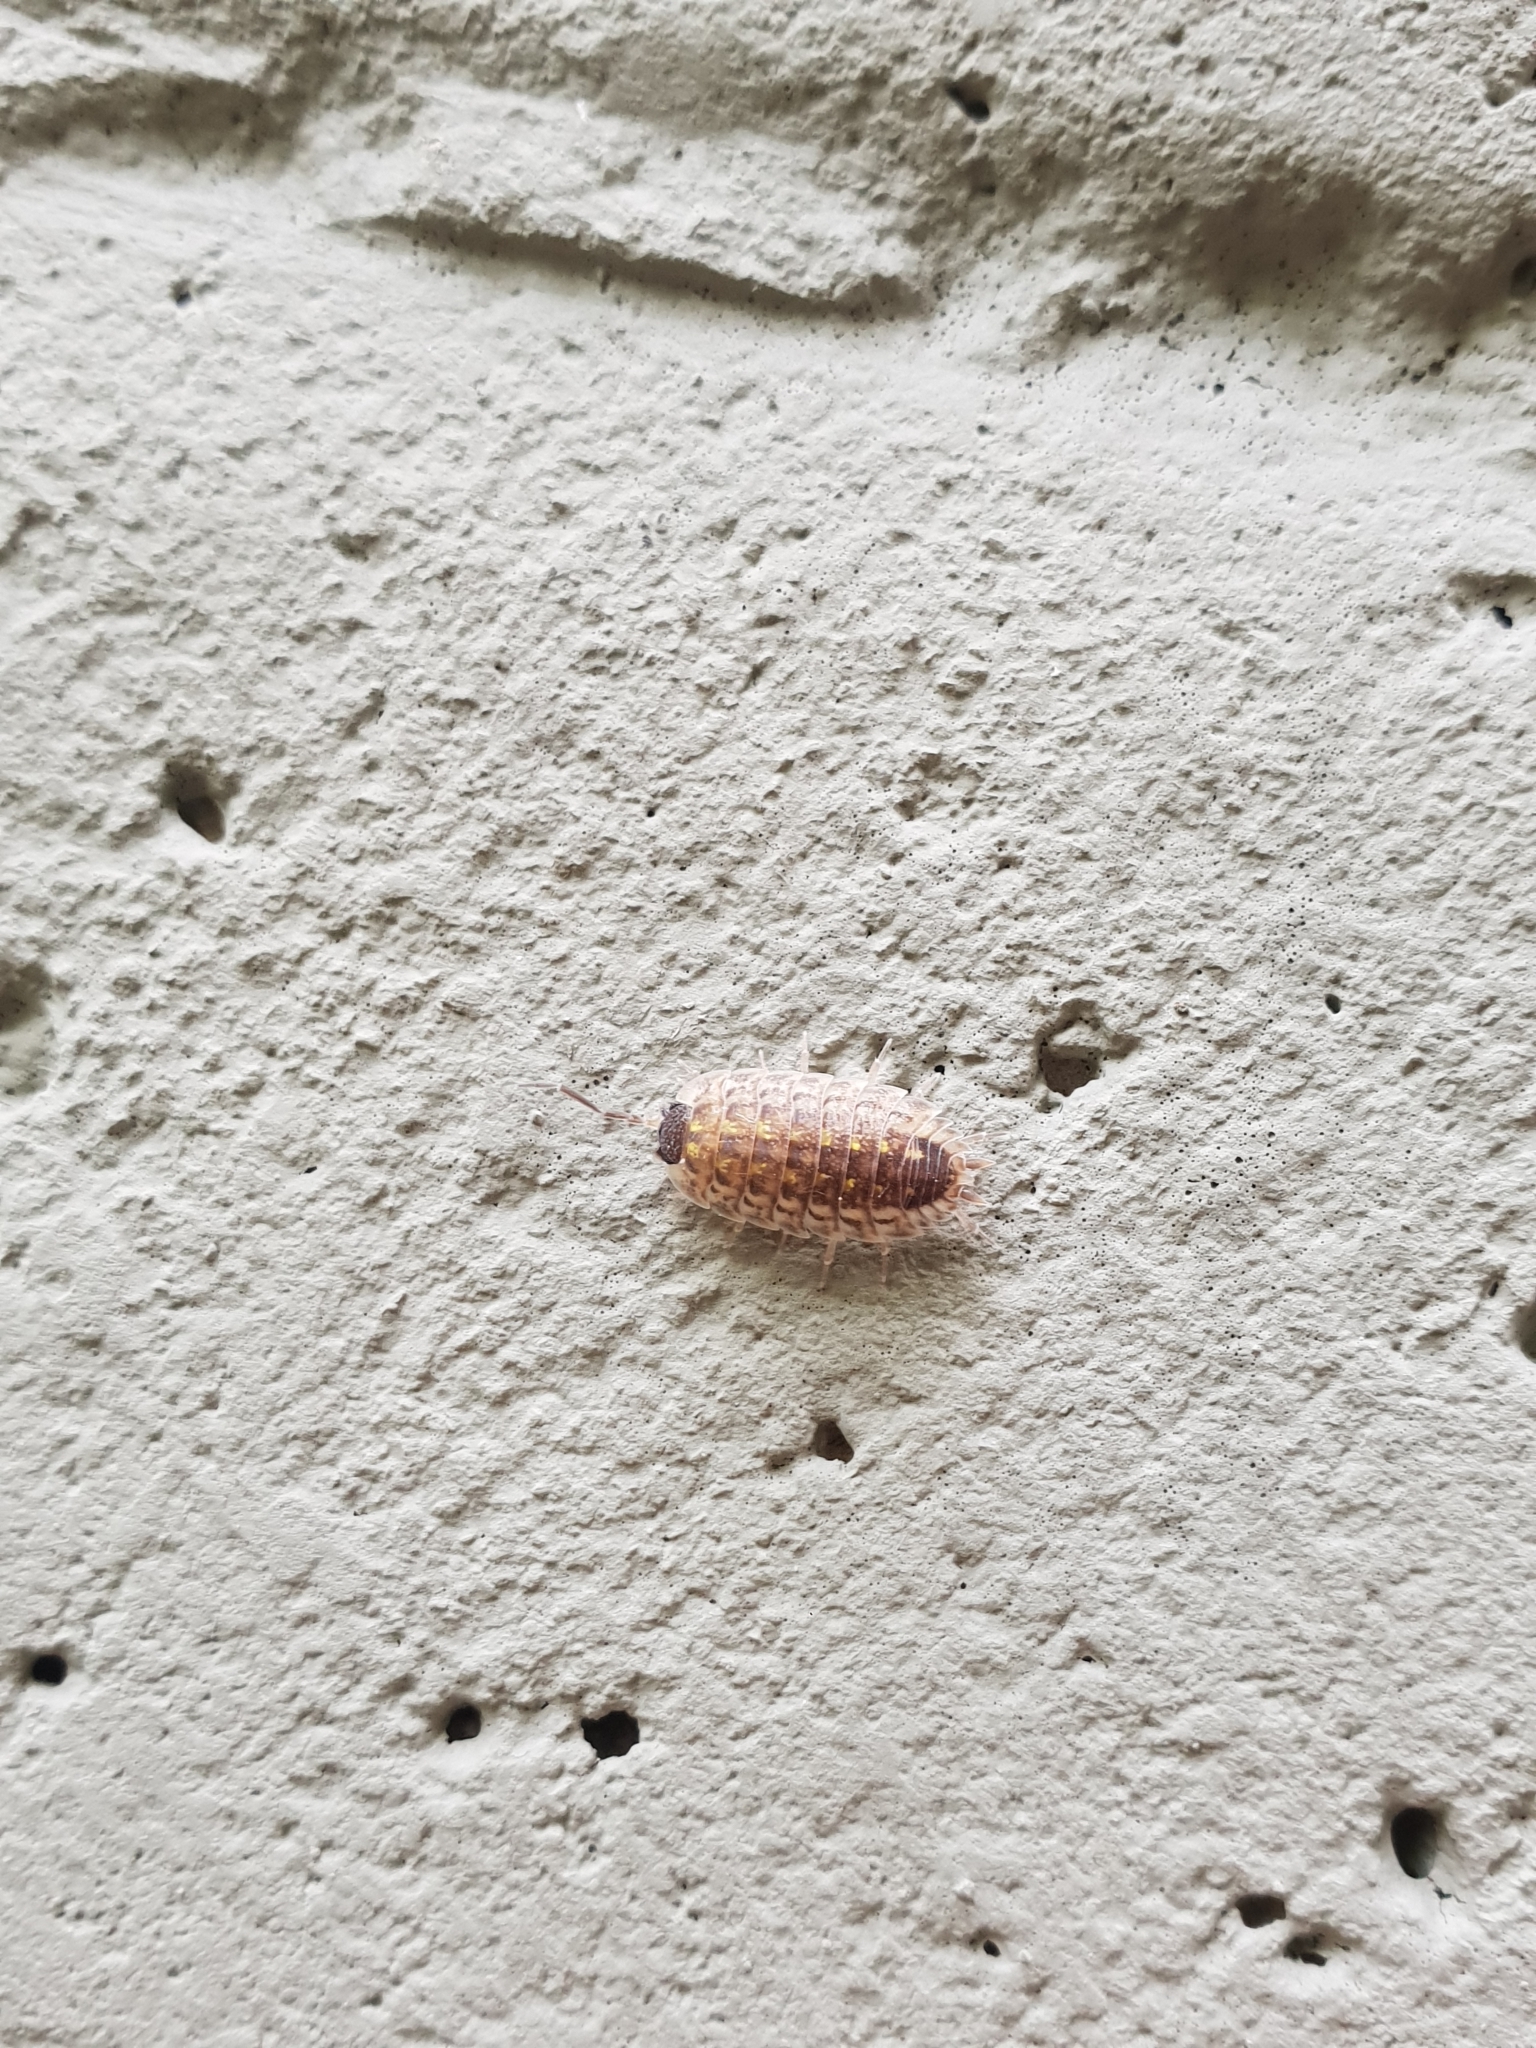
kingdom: Animalia
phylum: Arthropoda
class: Malacostraca
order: Isopoda
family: Porcellionidae
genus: Porcellio
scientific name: Porcellio spinicornis
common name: Painted woodlouse
